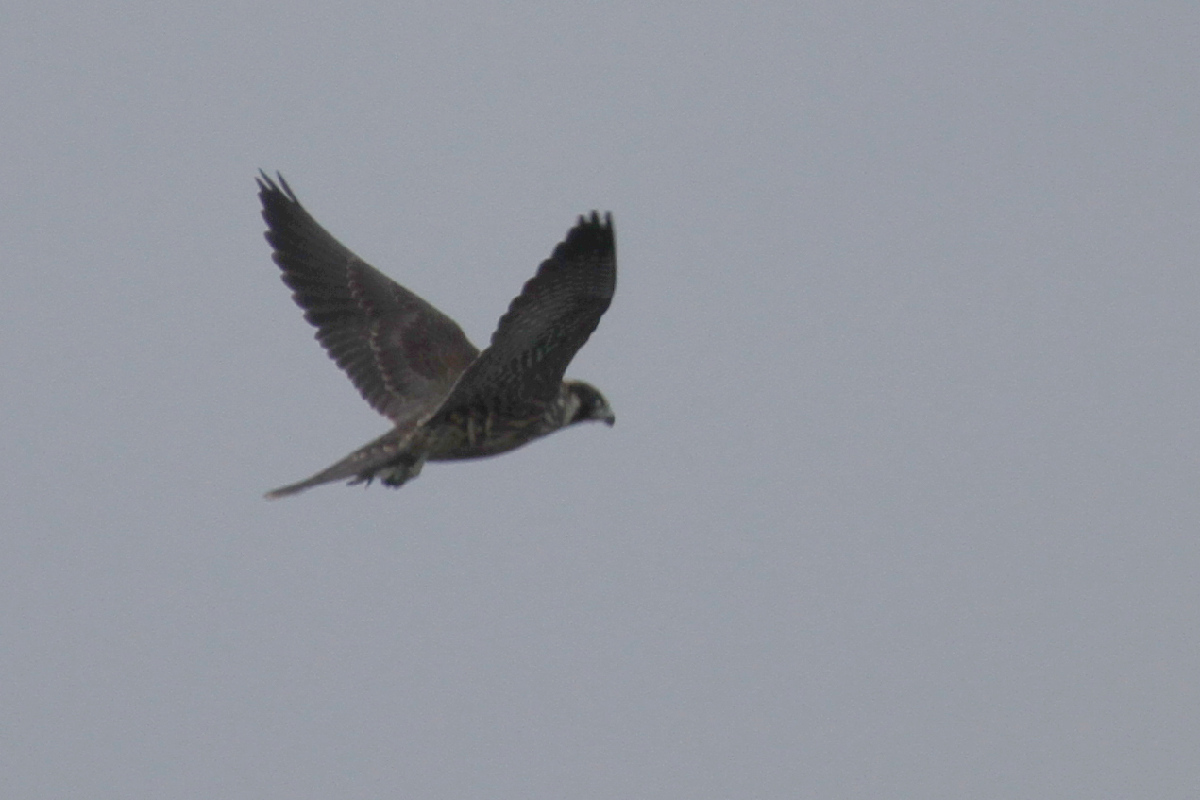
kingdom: Animalia
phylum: Chordata
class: Aves
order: Falconiformes
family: Falconidae
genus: Falco
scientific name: Falco peregrinus
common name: Peregrine falcon
